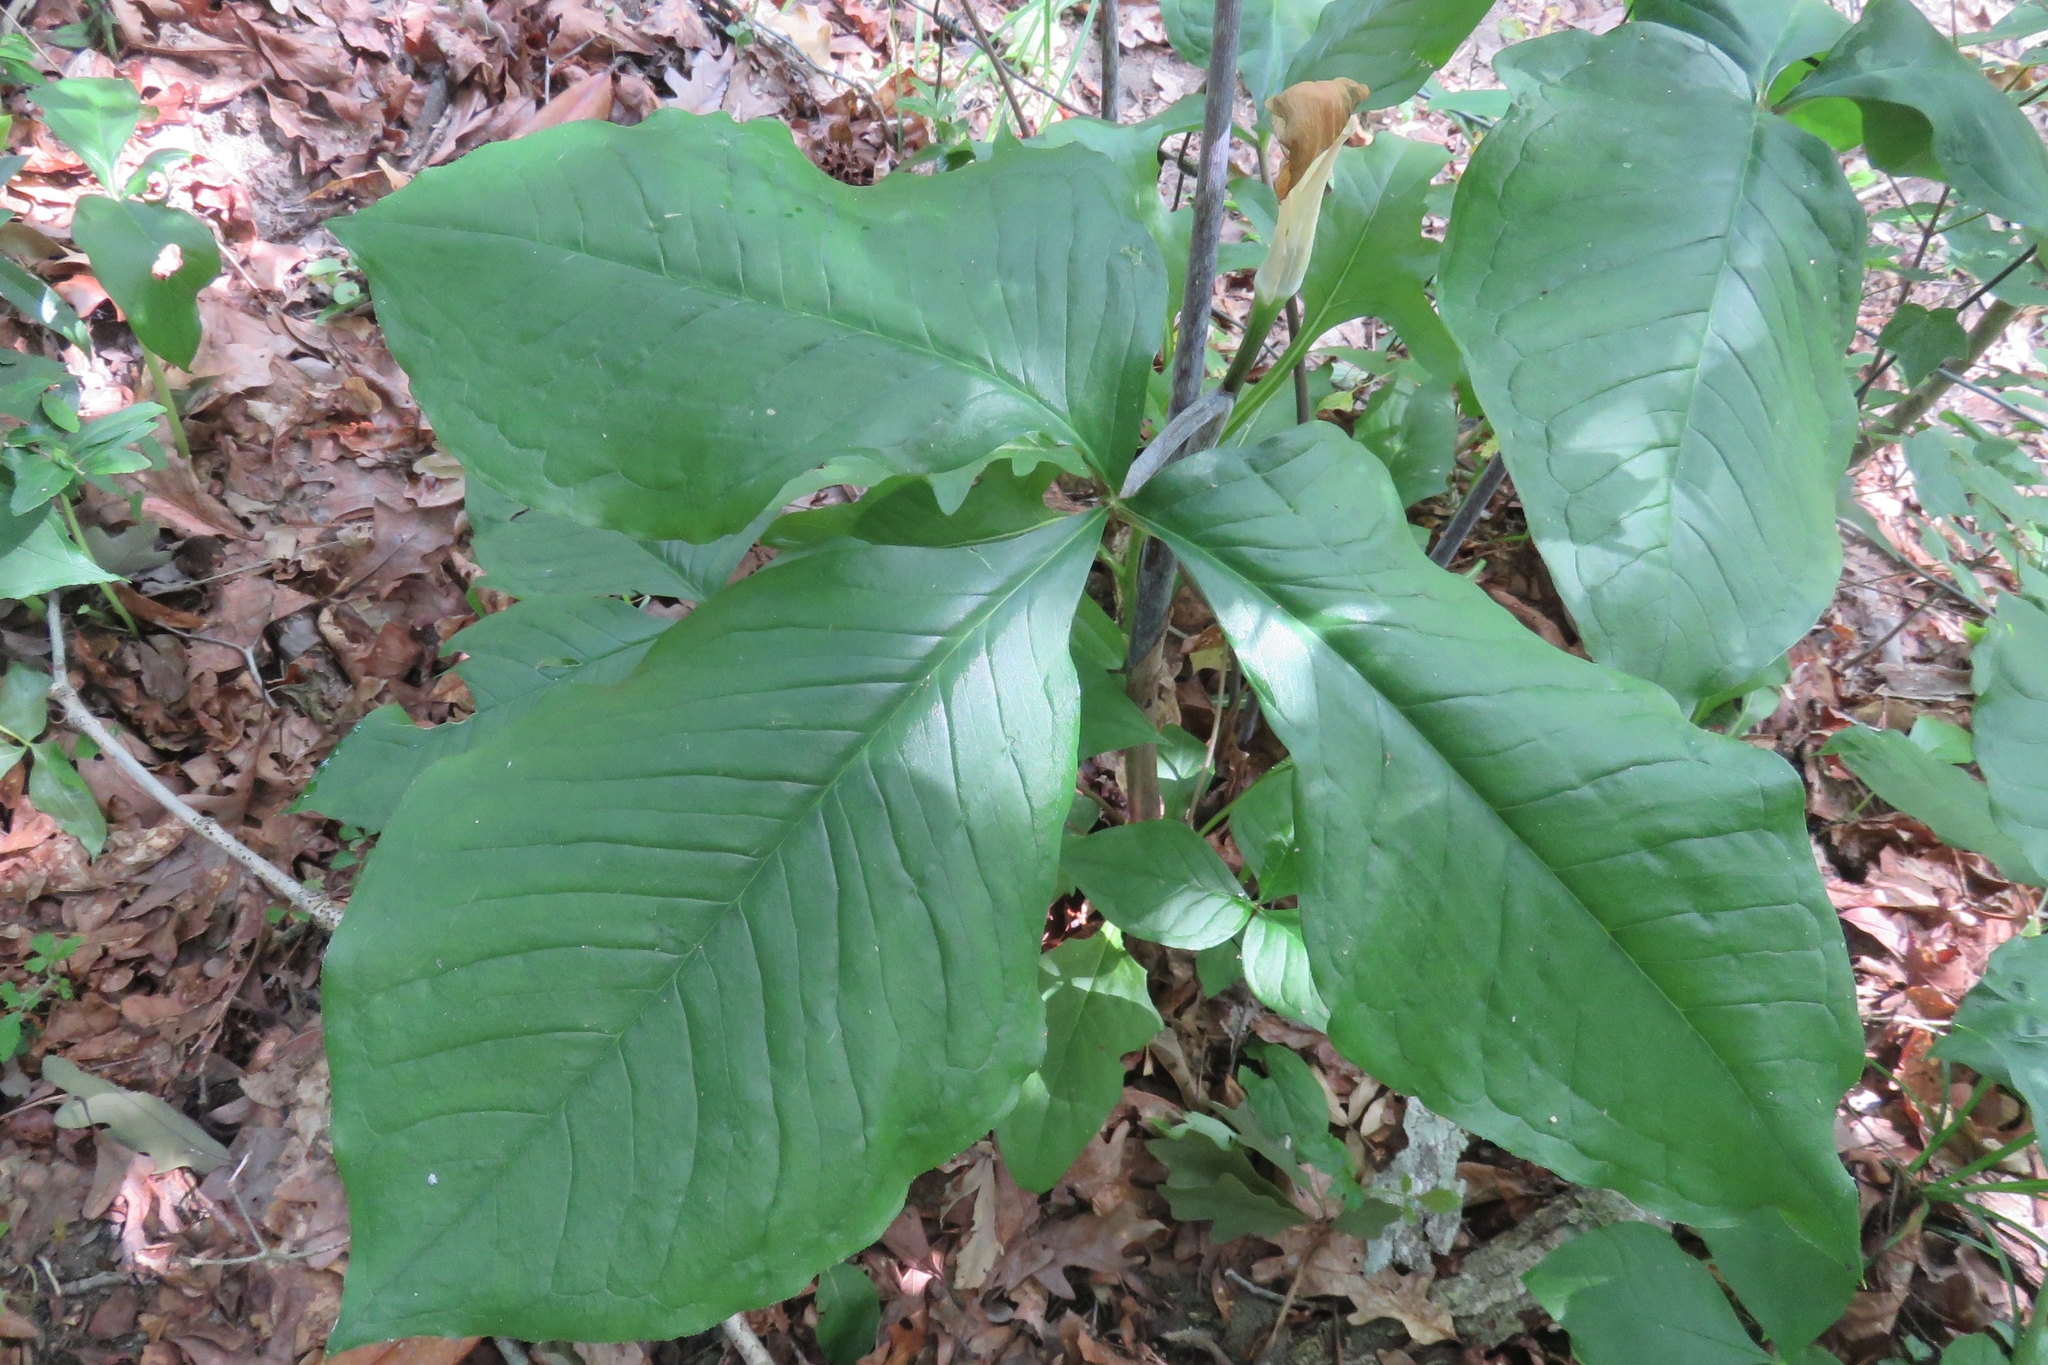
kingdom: Plantae
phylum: Tracheophyta
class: Liliopsida
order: Alismatales
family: Araceae
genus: Arisaema
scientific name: Arisaema quinatum
